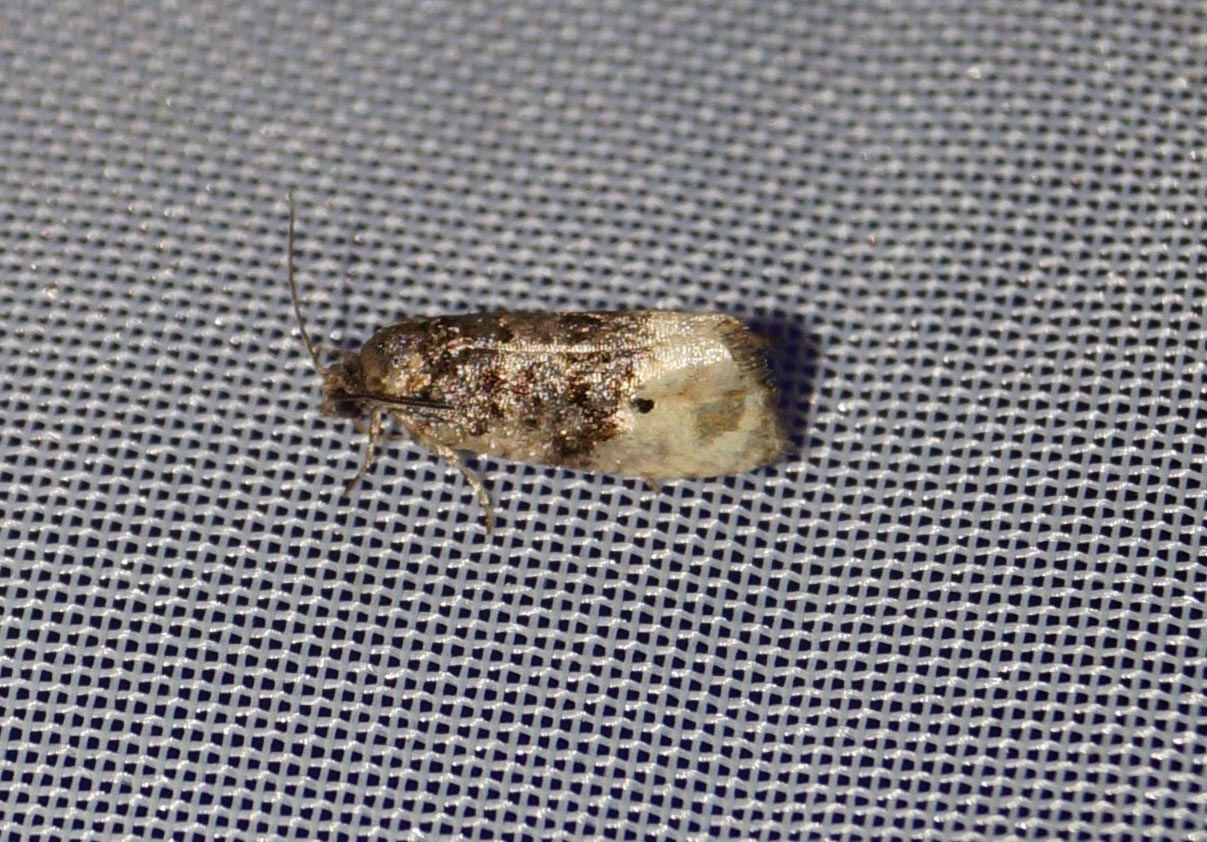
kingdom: Animalia
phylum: Arthropoda
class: Insecta
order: Lepidoptera
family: Tortricidae
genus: Metendothenia
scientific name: Metendothenia atropunctana
